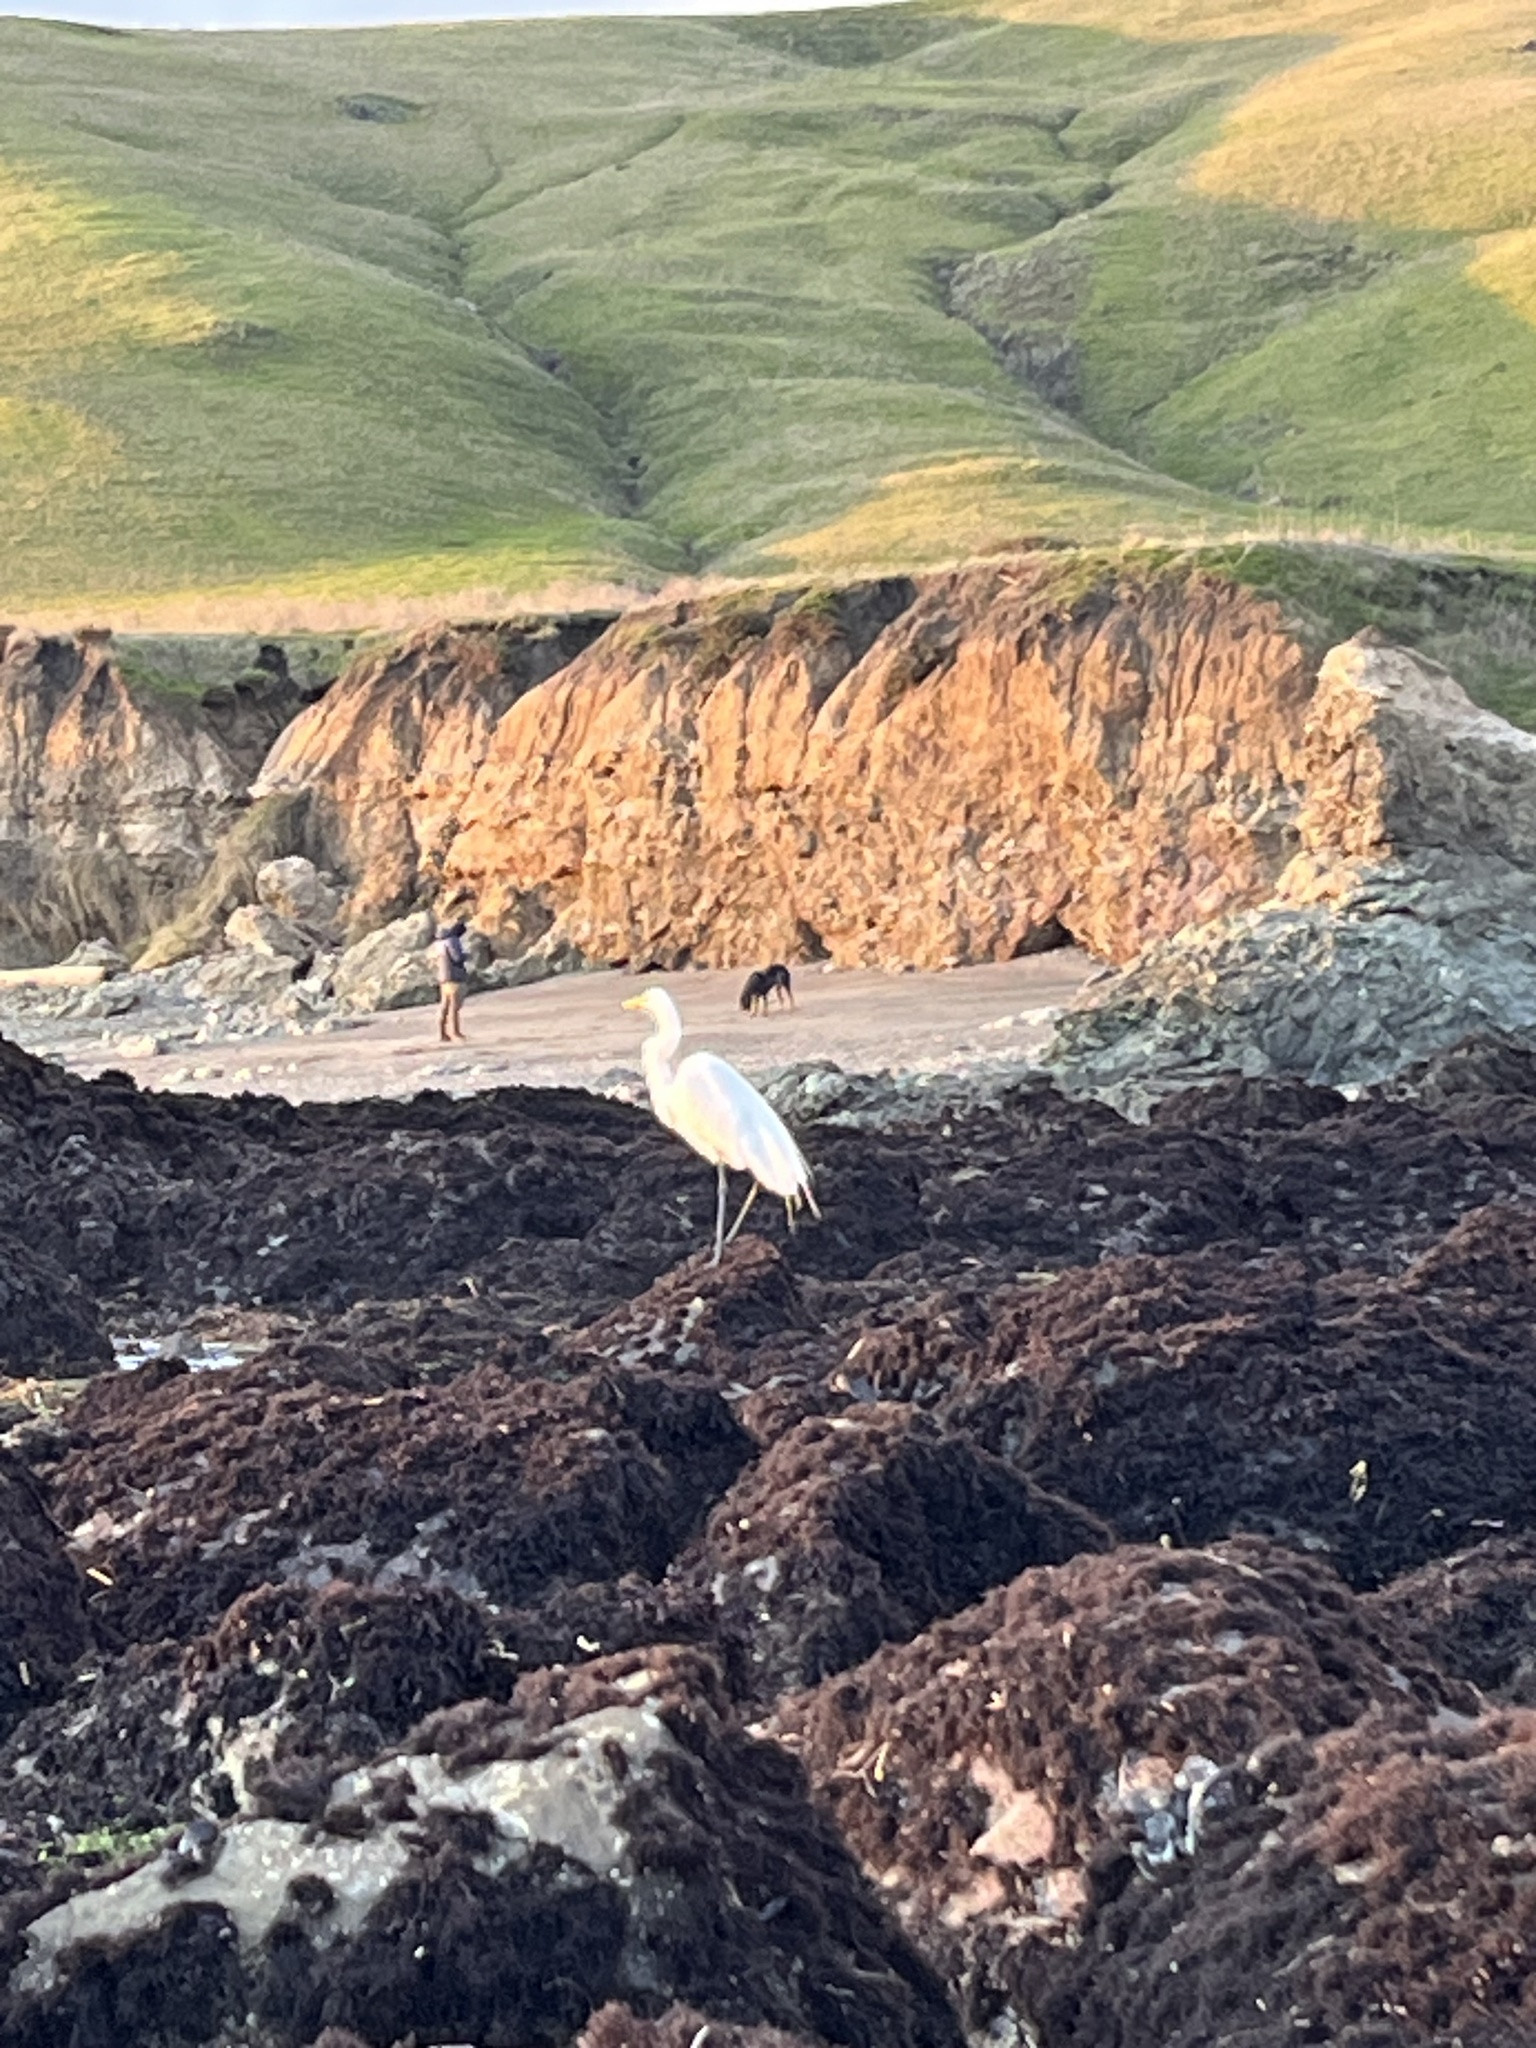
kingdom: Animalia
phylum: Chordata
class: Aves
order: Pelecaniformes
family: Ardeidae
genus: Ardea
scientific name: Ardea alba
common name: Great egret
